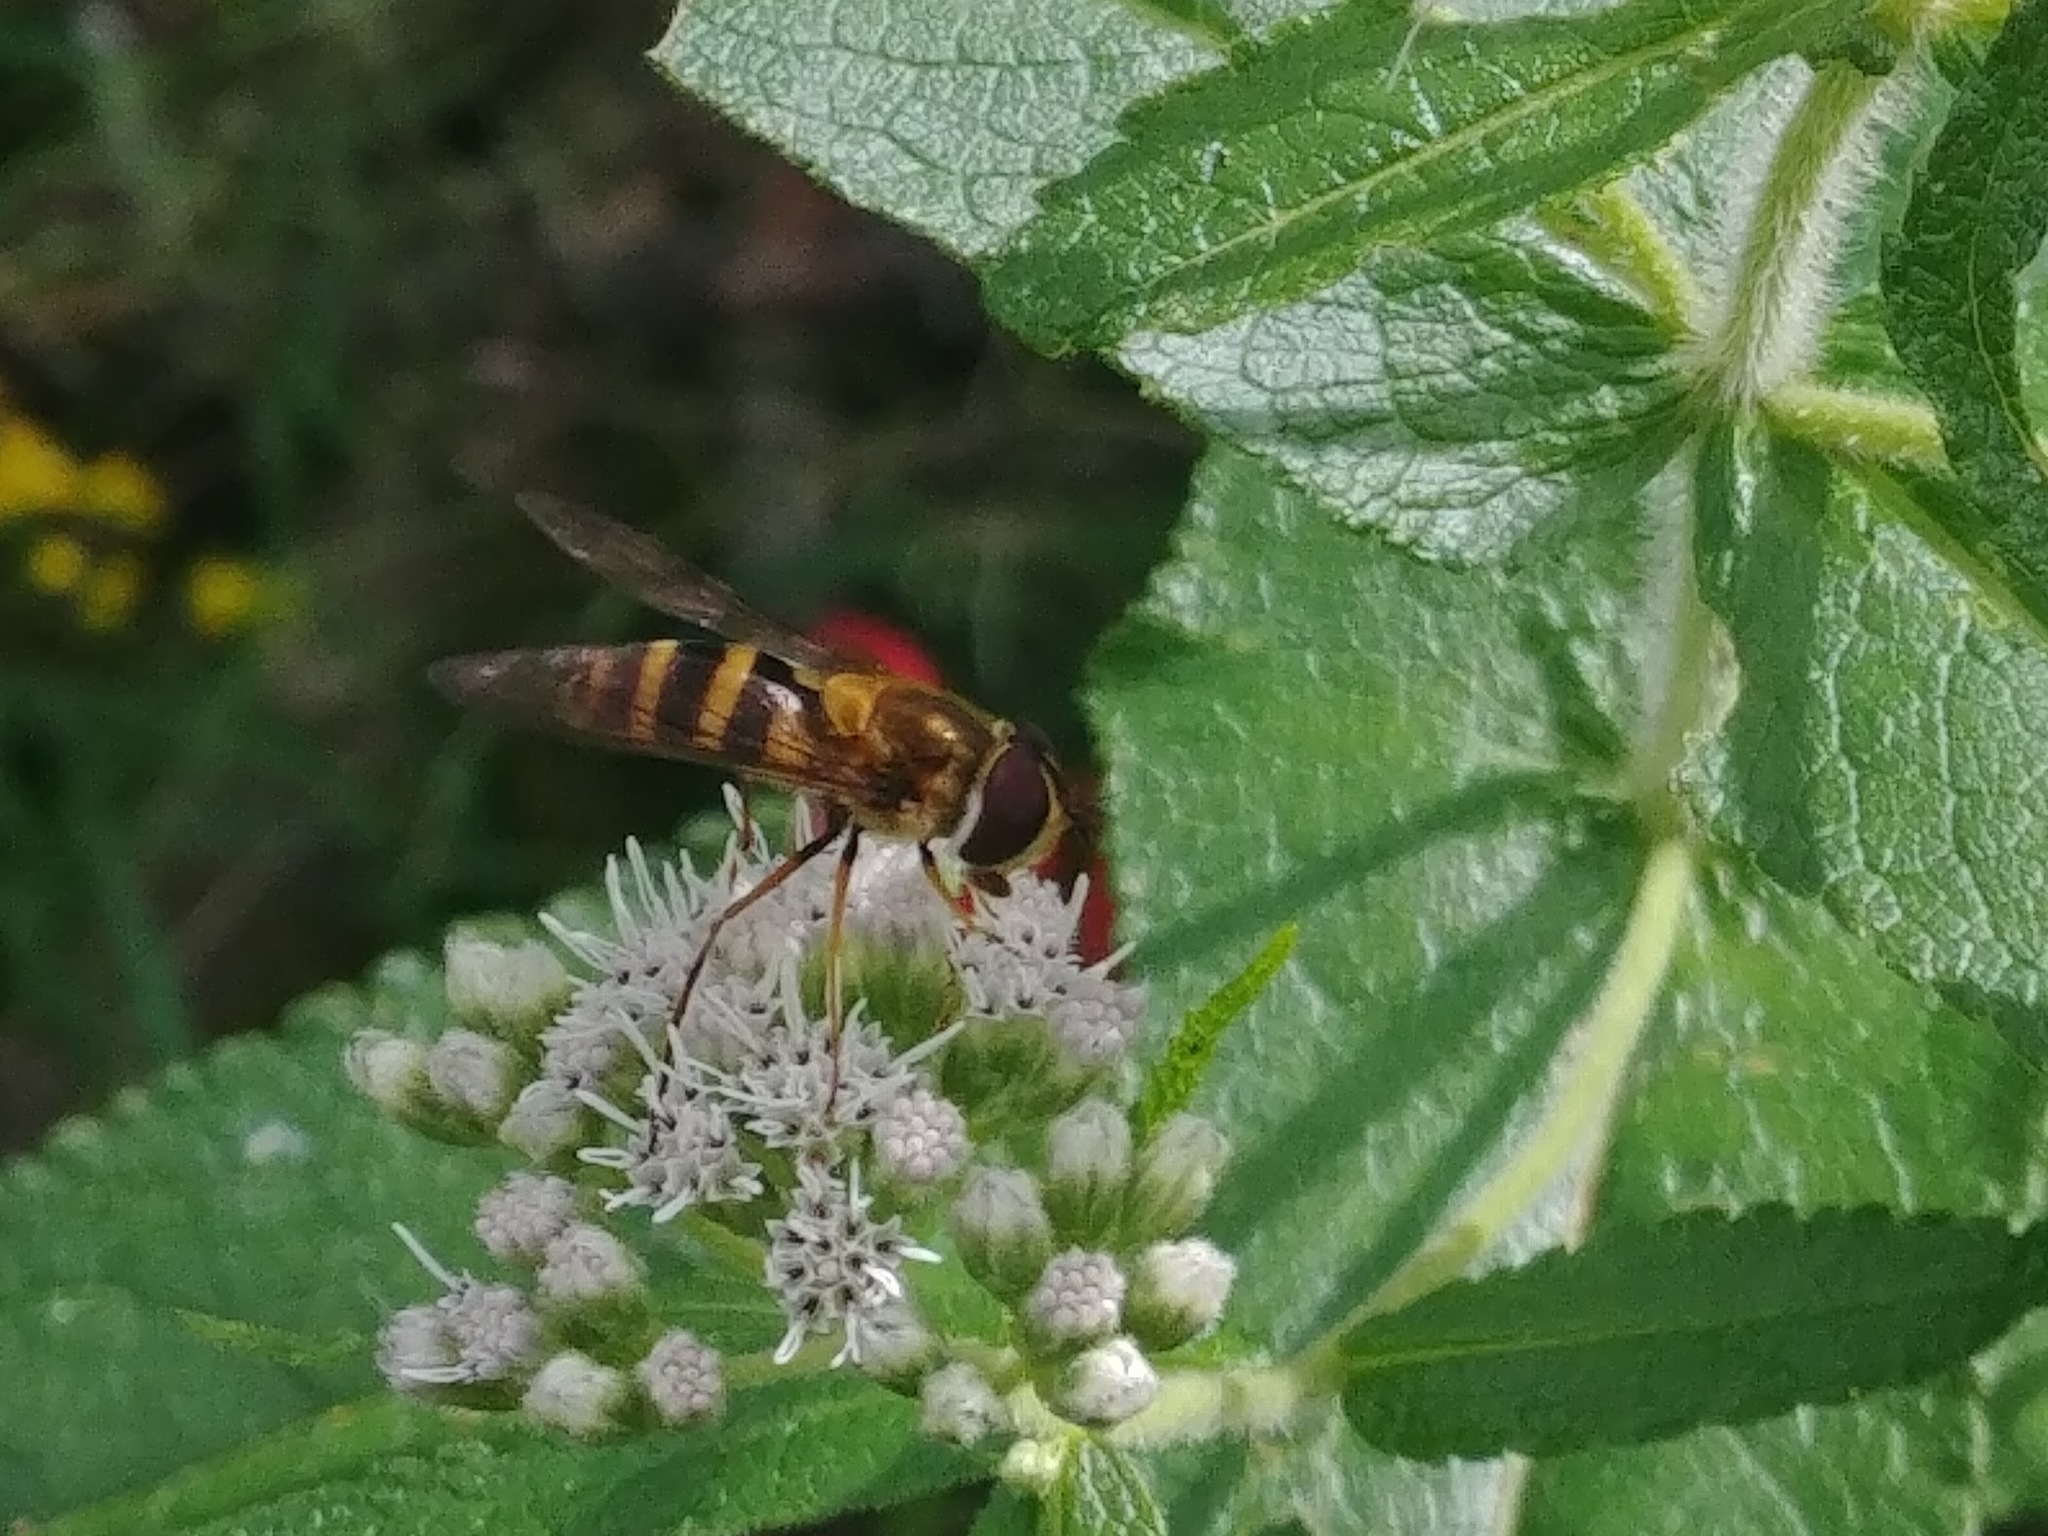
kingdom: Animalia
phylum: Arthropoda
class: Insecta
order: Diptera
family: Syrphidae
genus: Epistrophe
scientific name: Epistrophe grossulariae
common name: Black-horned smoothtail
